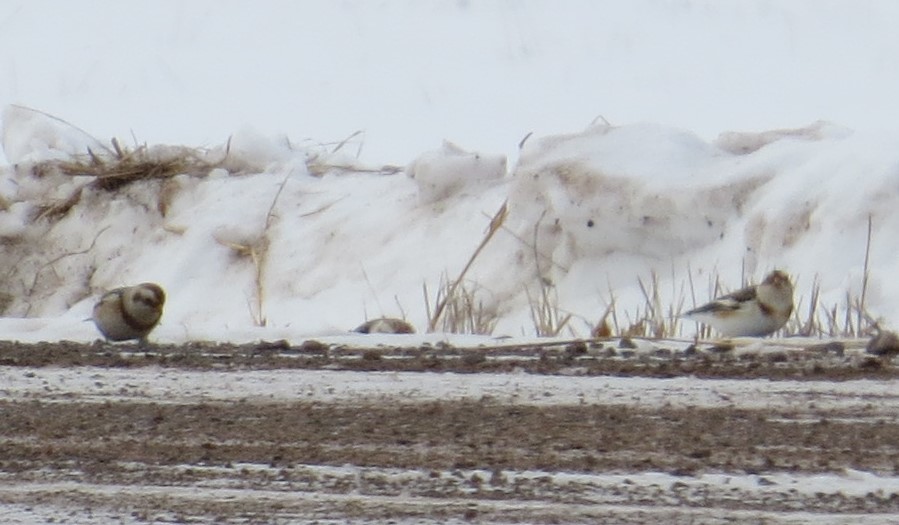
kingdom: Animalia
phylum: Chordata
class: Aves
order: Passeriformes
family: Calcariidae
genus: Plectrophenax
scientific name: Plectrophenax nivalis
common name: Snow bunting
